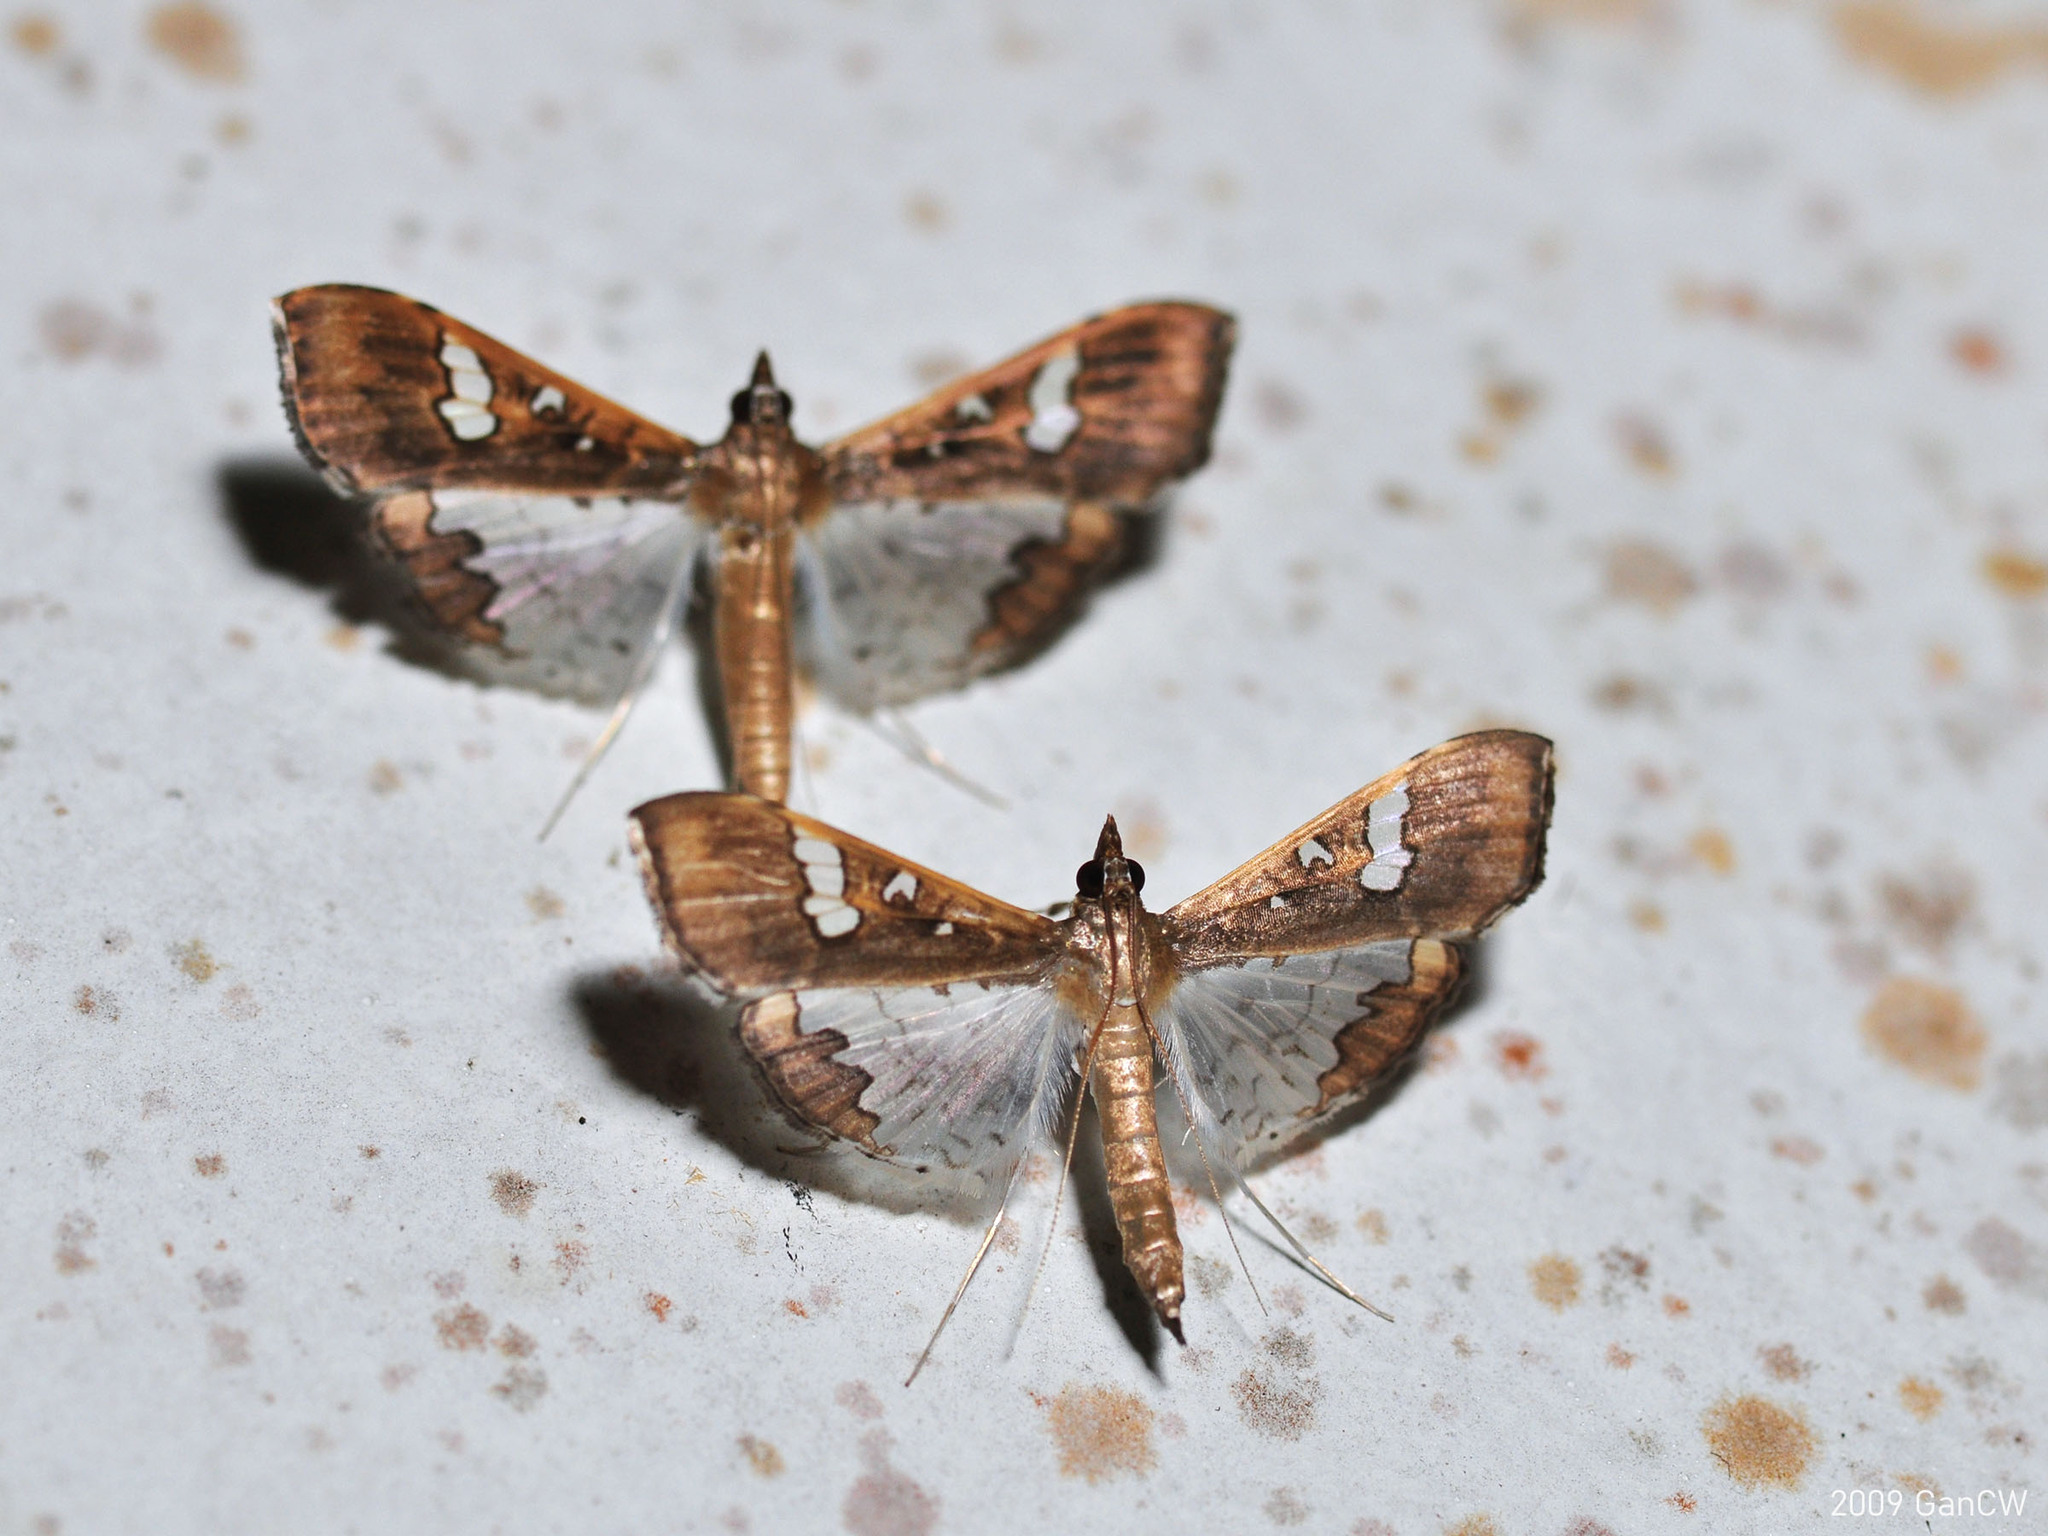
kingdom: Animalia
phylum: Arthropoda
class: Insecta
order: Lepidoptera
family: Crambidae
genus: Maruca
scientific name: Maruca vitrata
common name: Maruca pod borer
